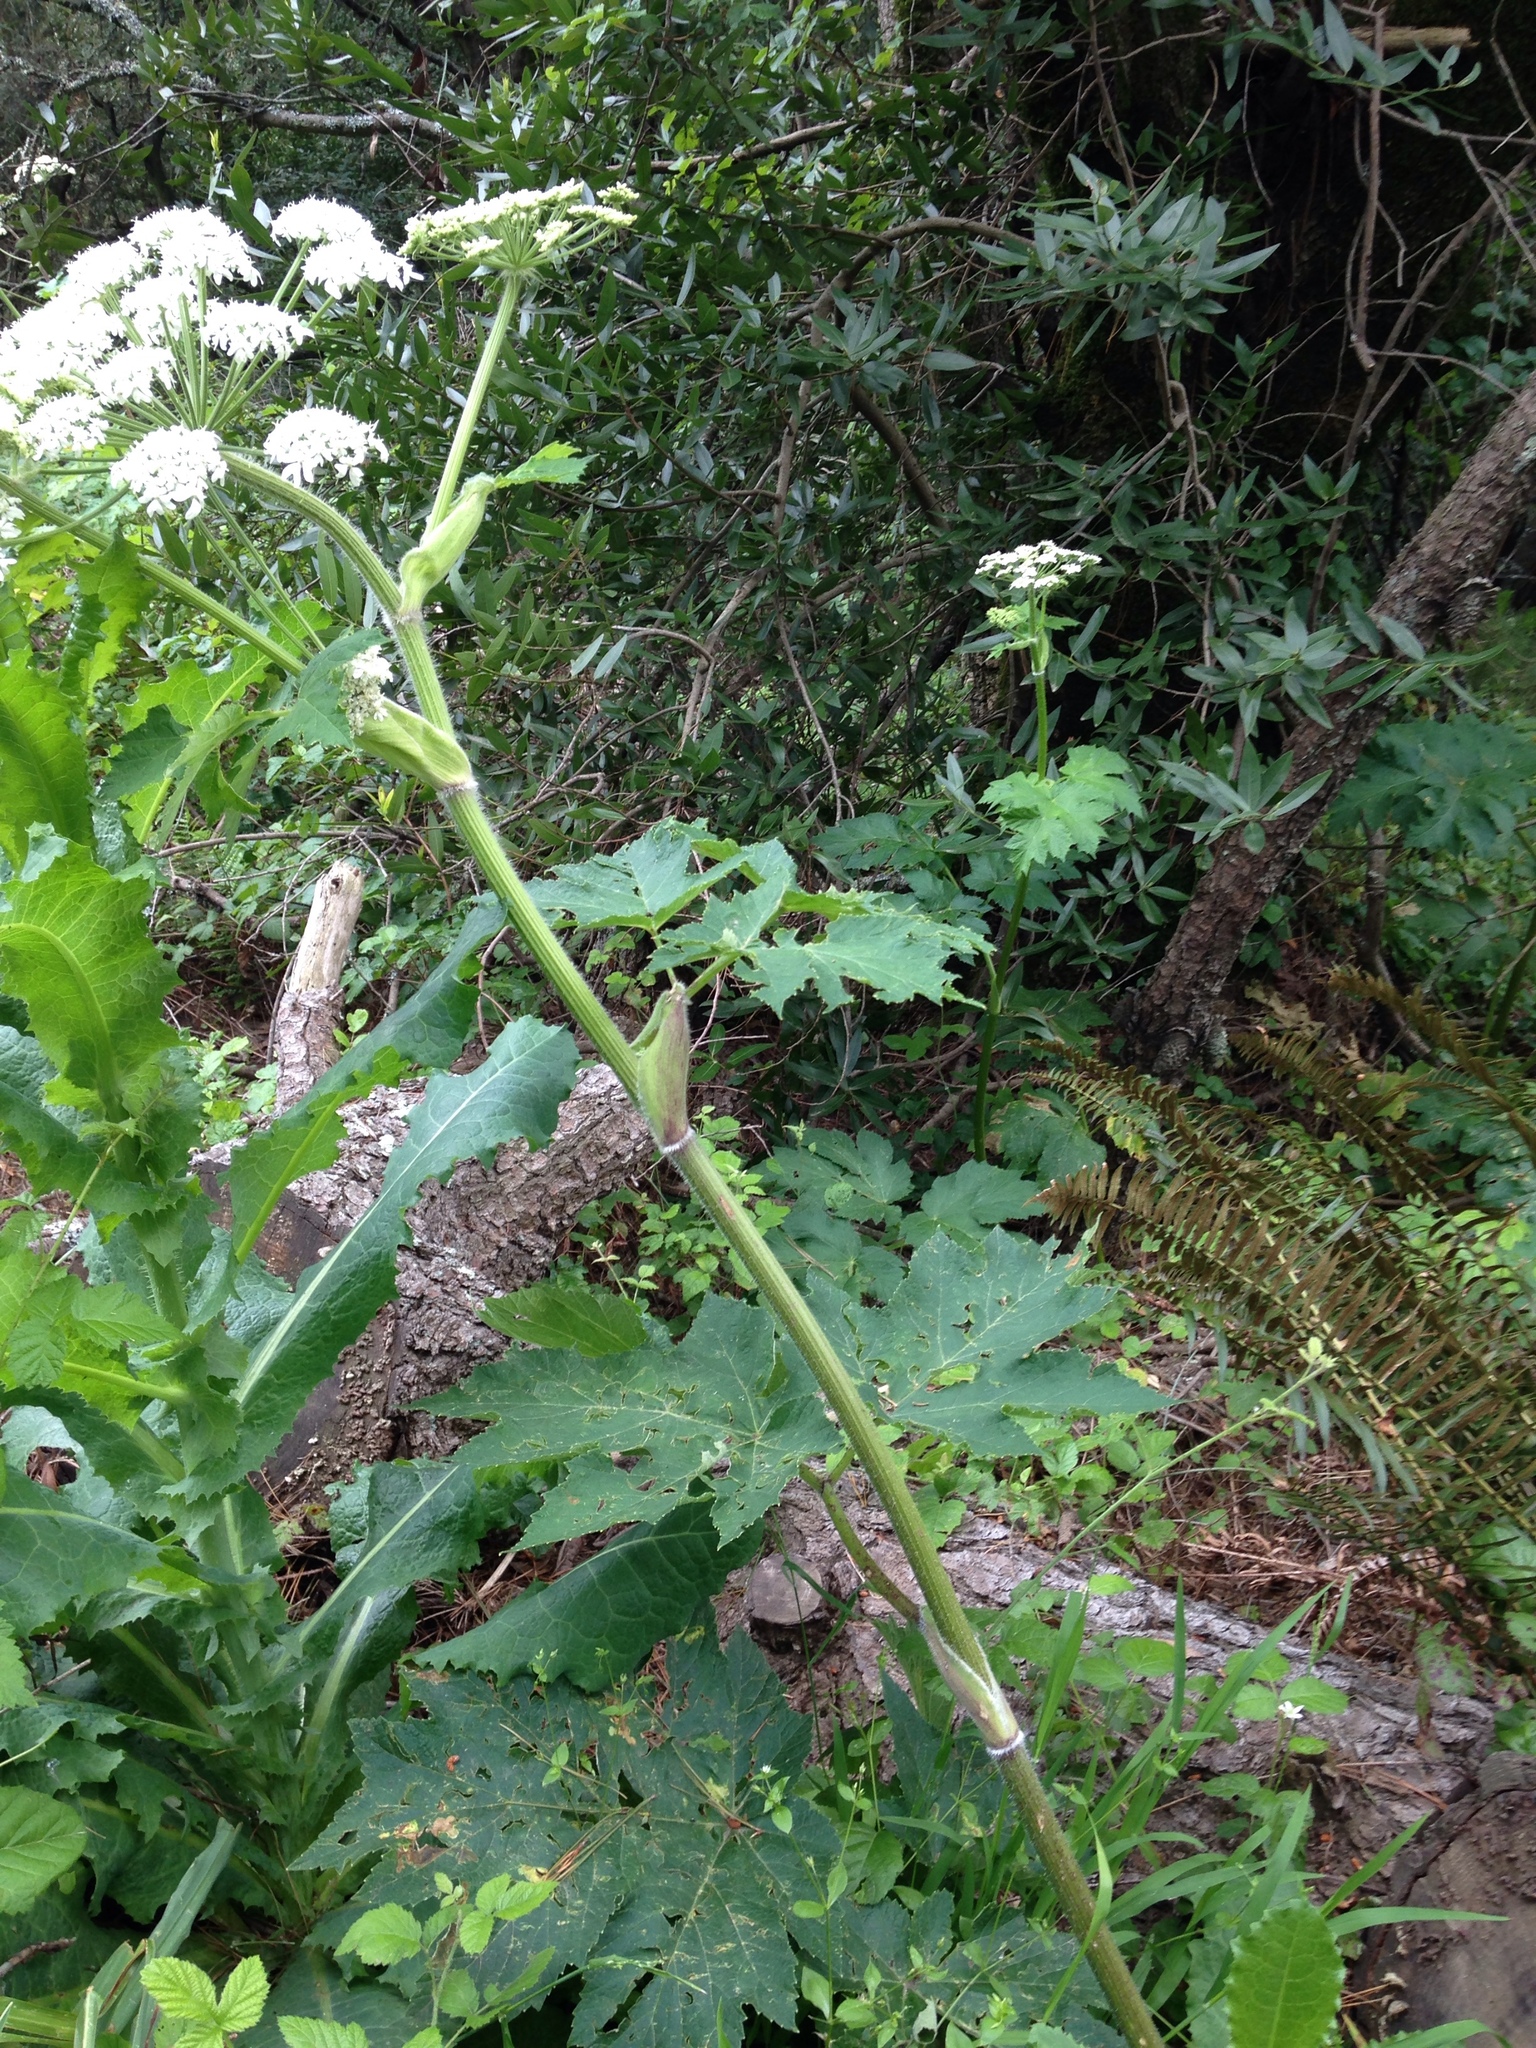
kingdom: Plantae
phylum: Tracheophyta
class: Magnoliopsida
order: Apiales
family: Apiaceae
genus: Heracleum
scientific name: Heracleum maximum
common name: American cow parsnip
